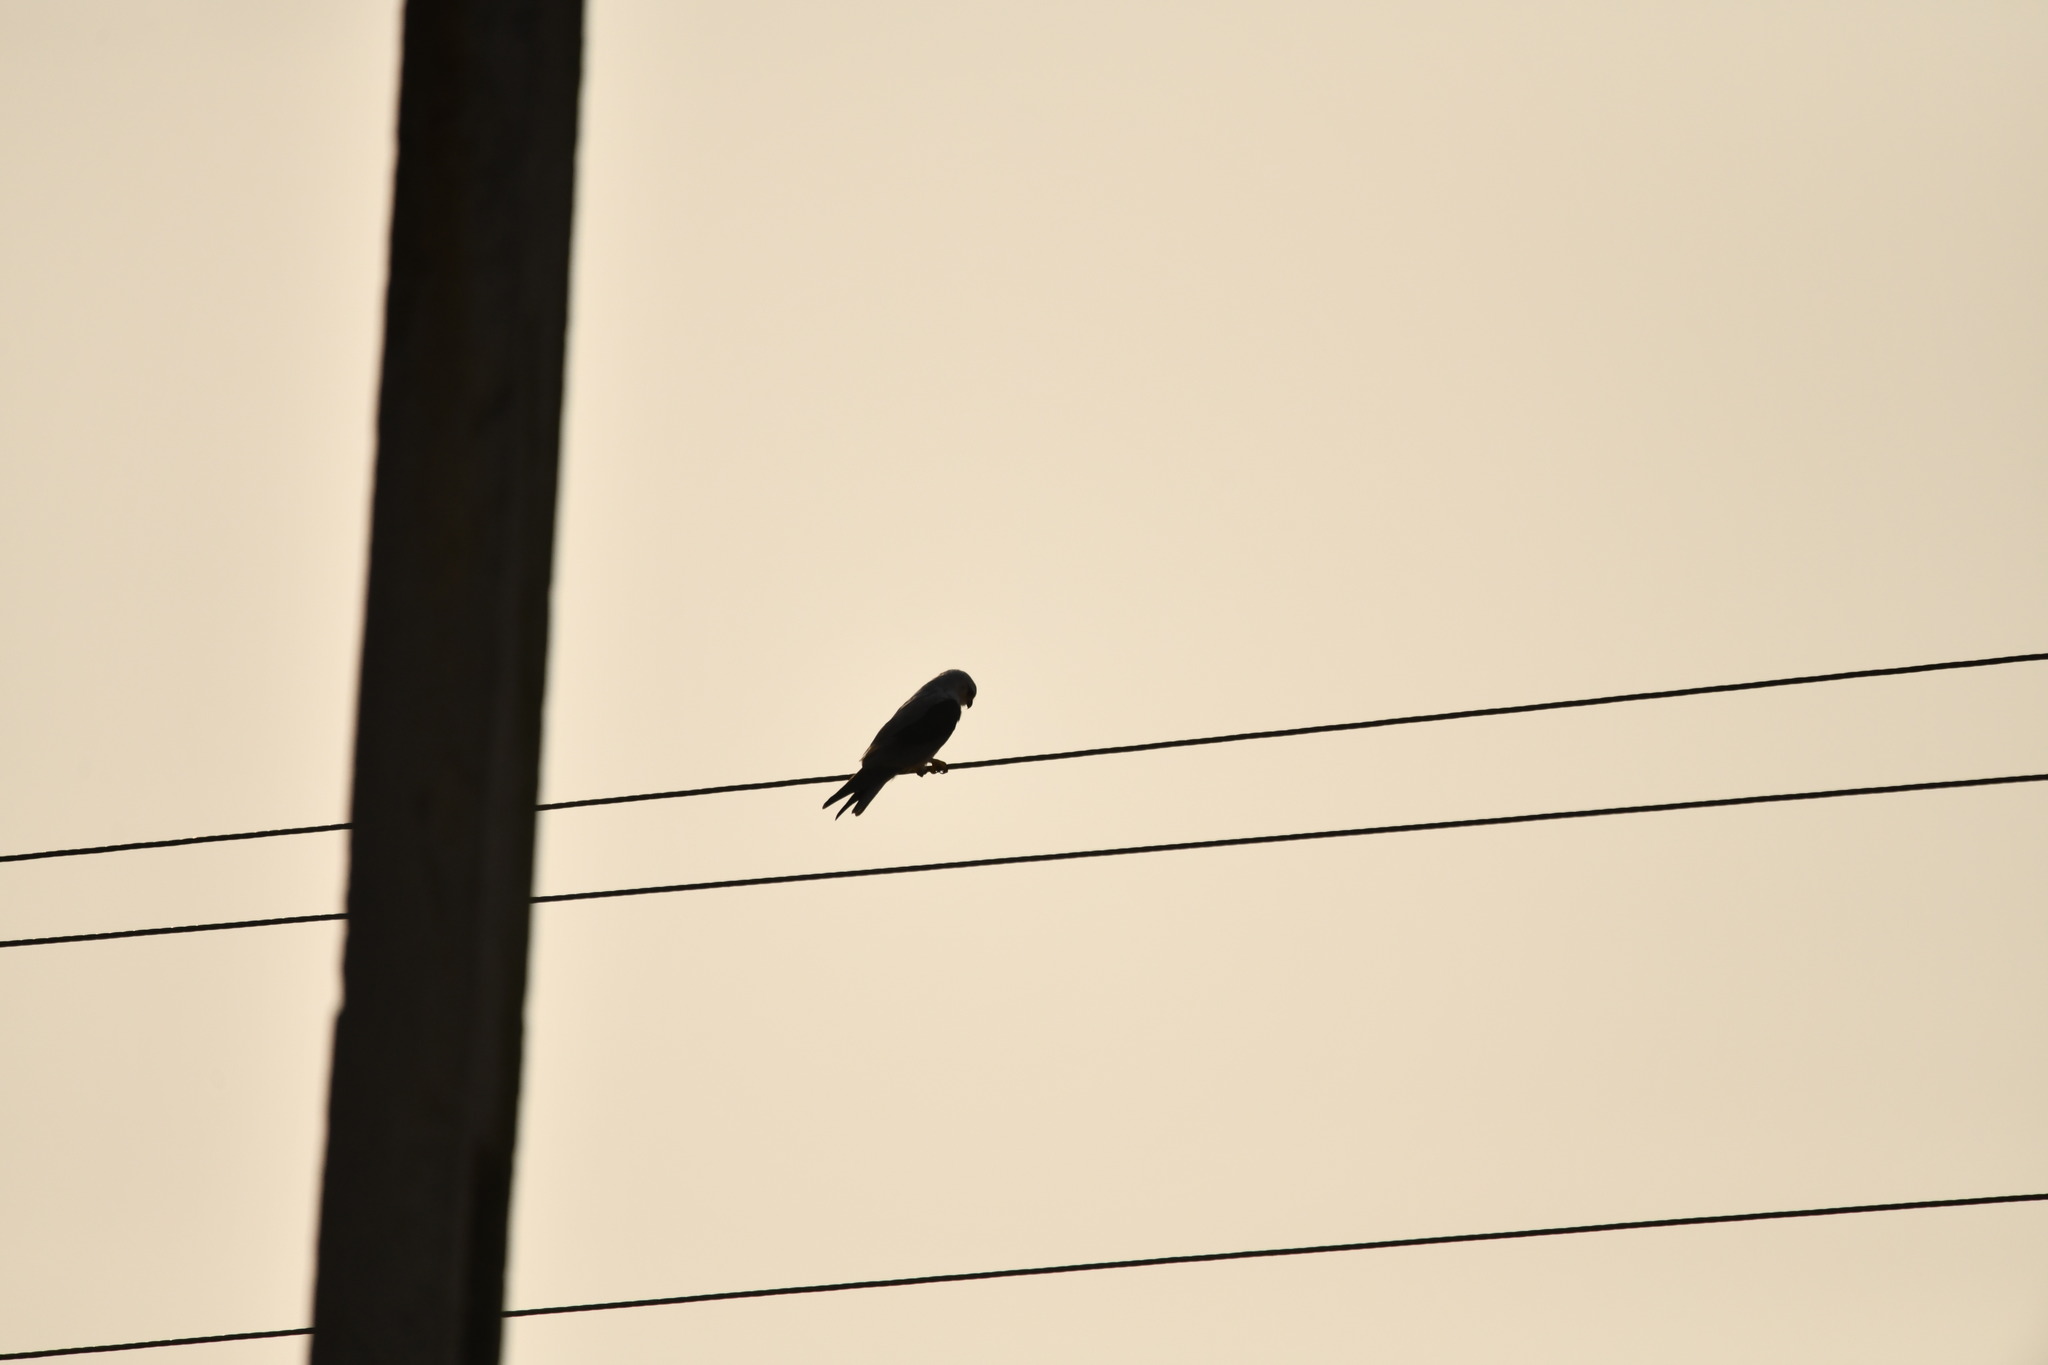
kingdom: Animalia
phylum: Chordata
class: Aves
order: Accipitriformes
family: Accipitridae
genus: Elanus
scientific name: Elanus caeruleus
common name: Black-winged kite
